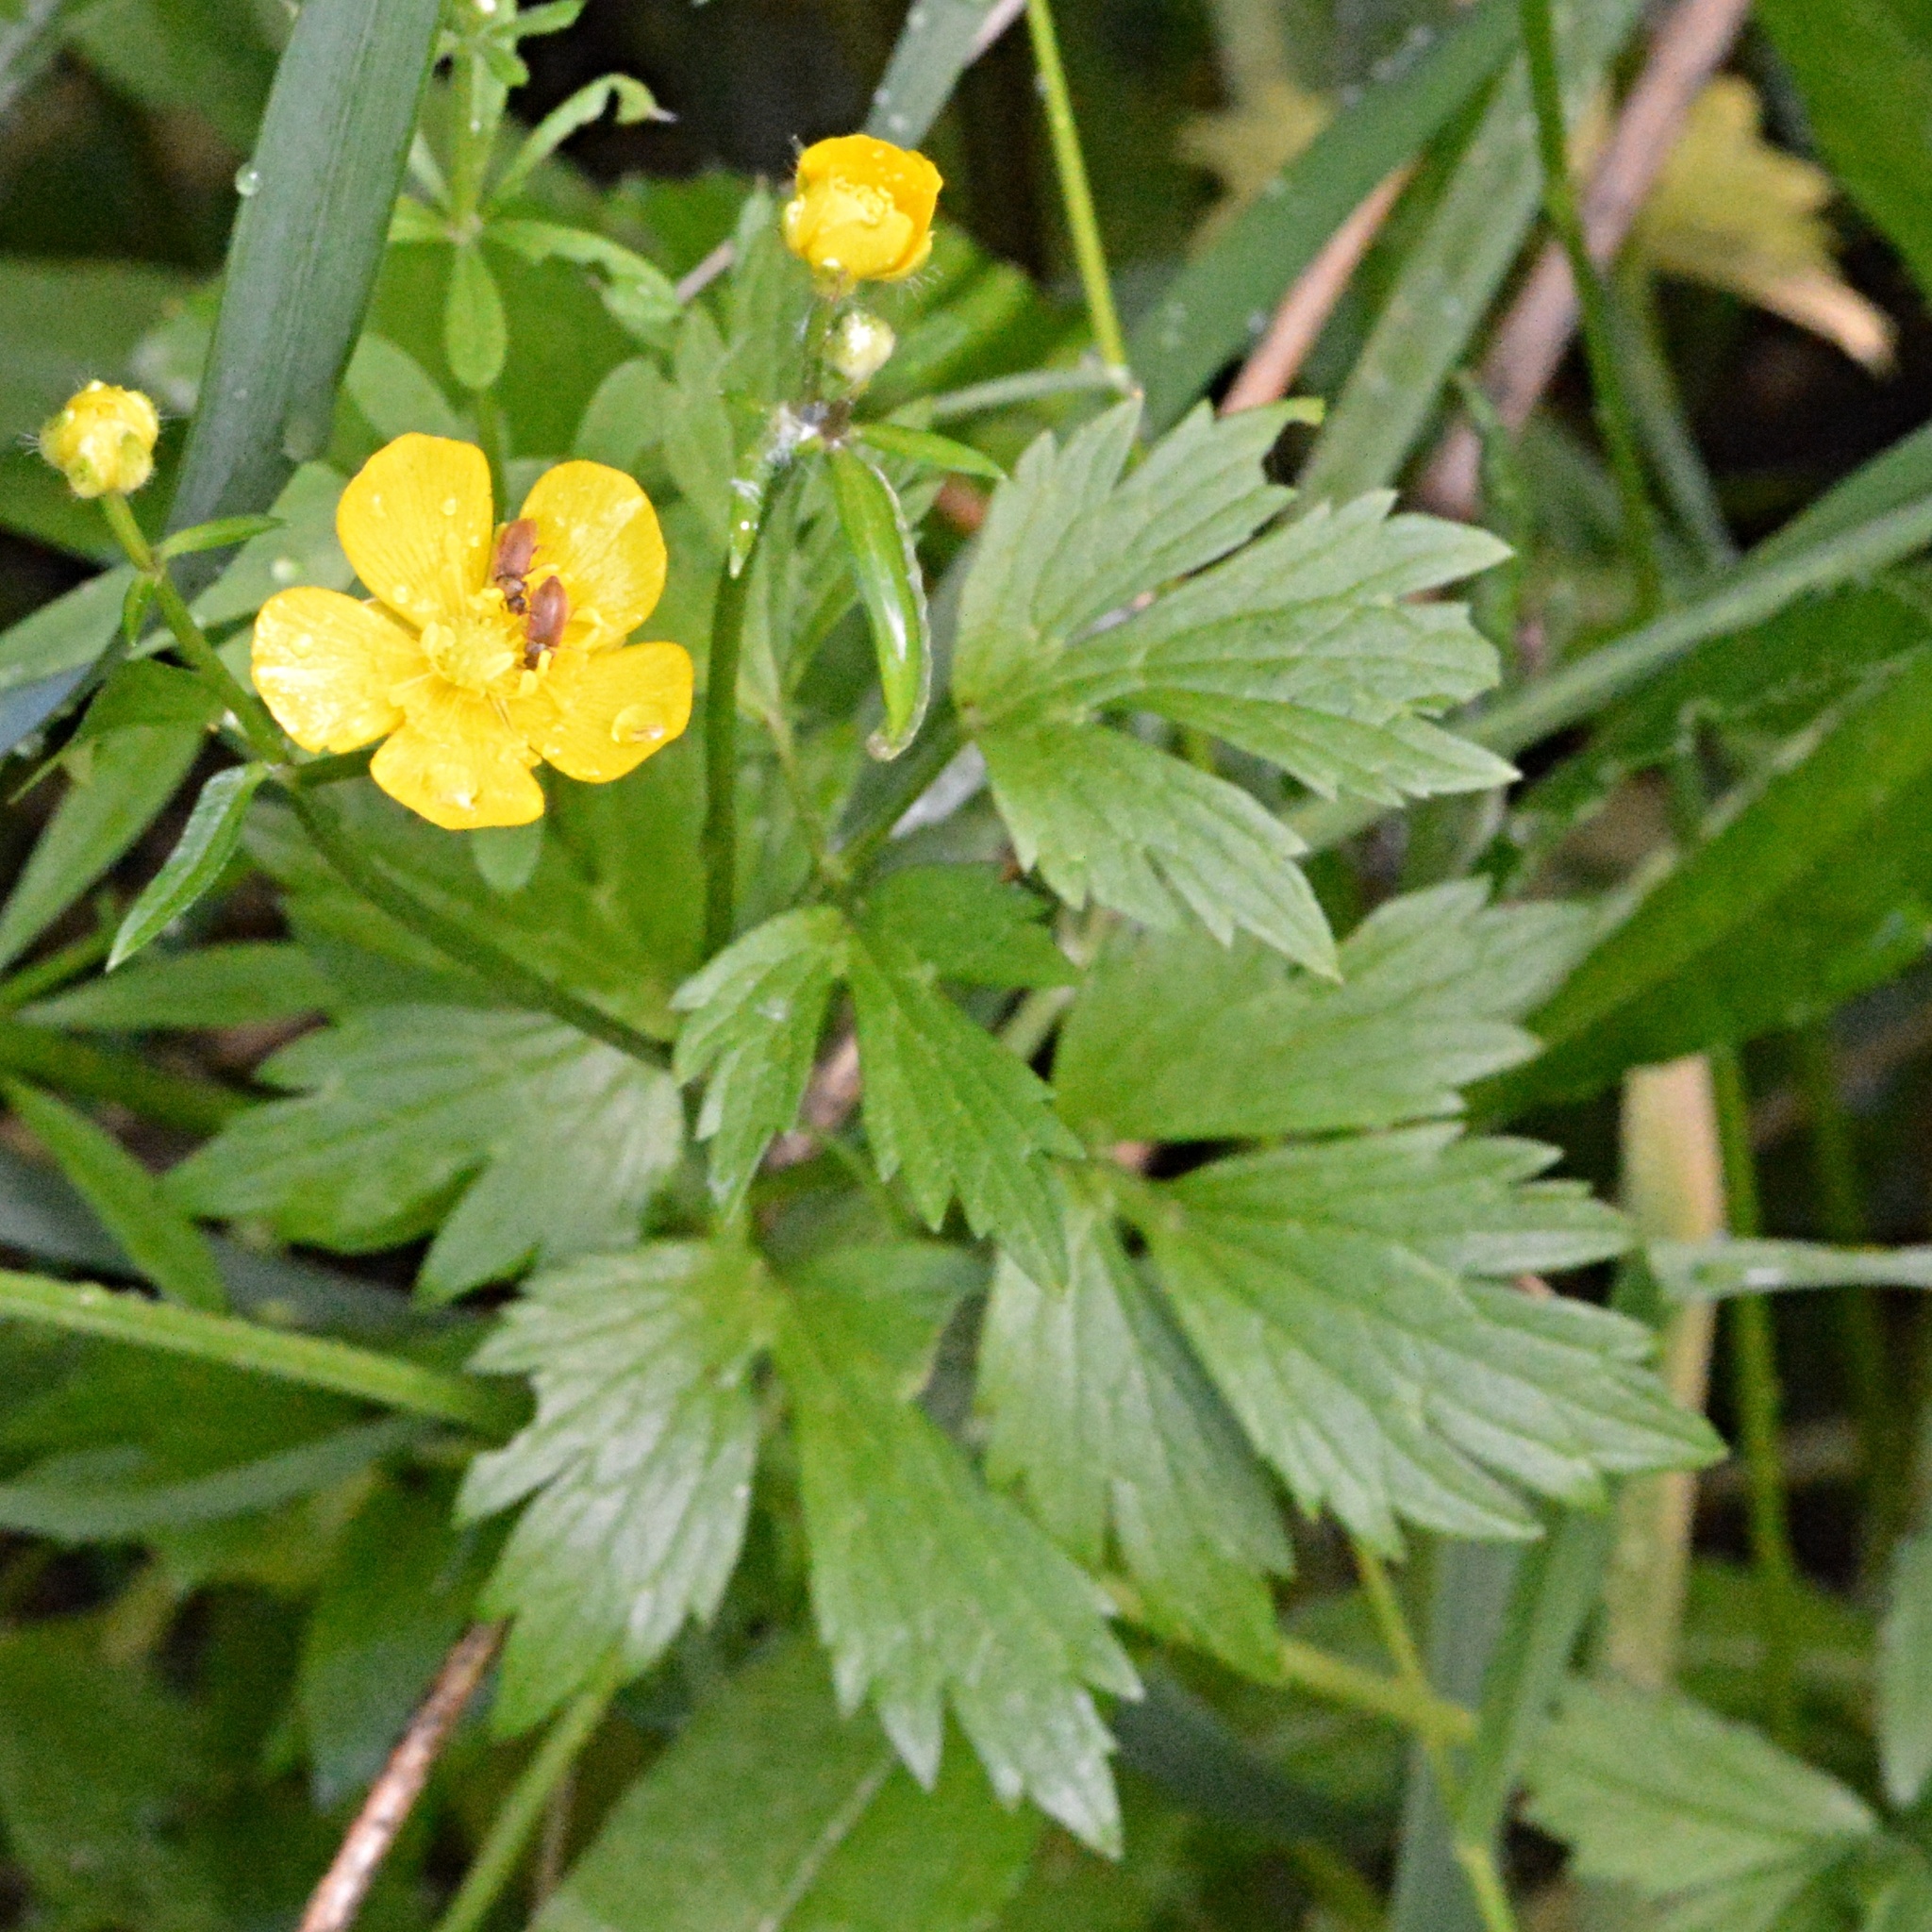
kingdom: Plantae
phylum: Tracheophyta
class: Magnoliopsida
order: Ranunculales
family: Ranunculaceae
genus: Ranunculus
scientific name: Ranunculus repens
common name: Creeping buttercup
